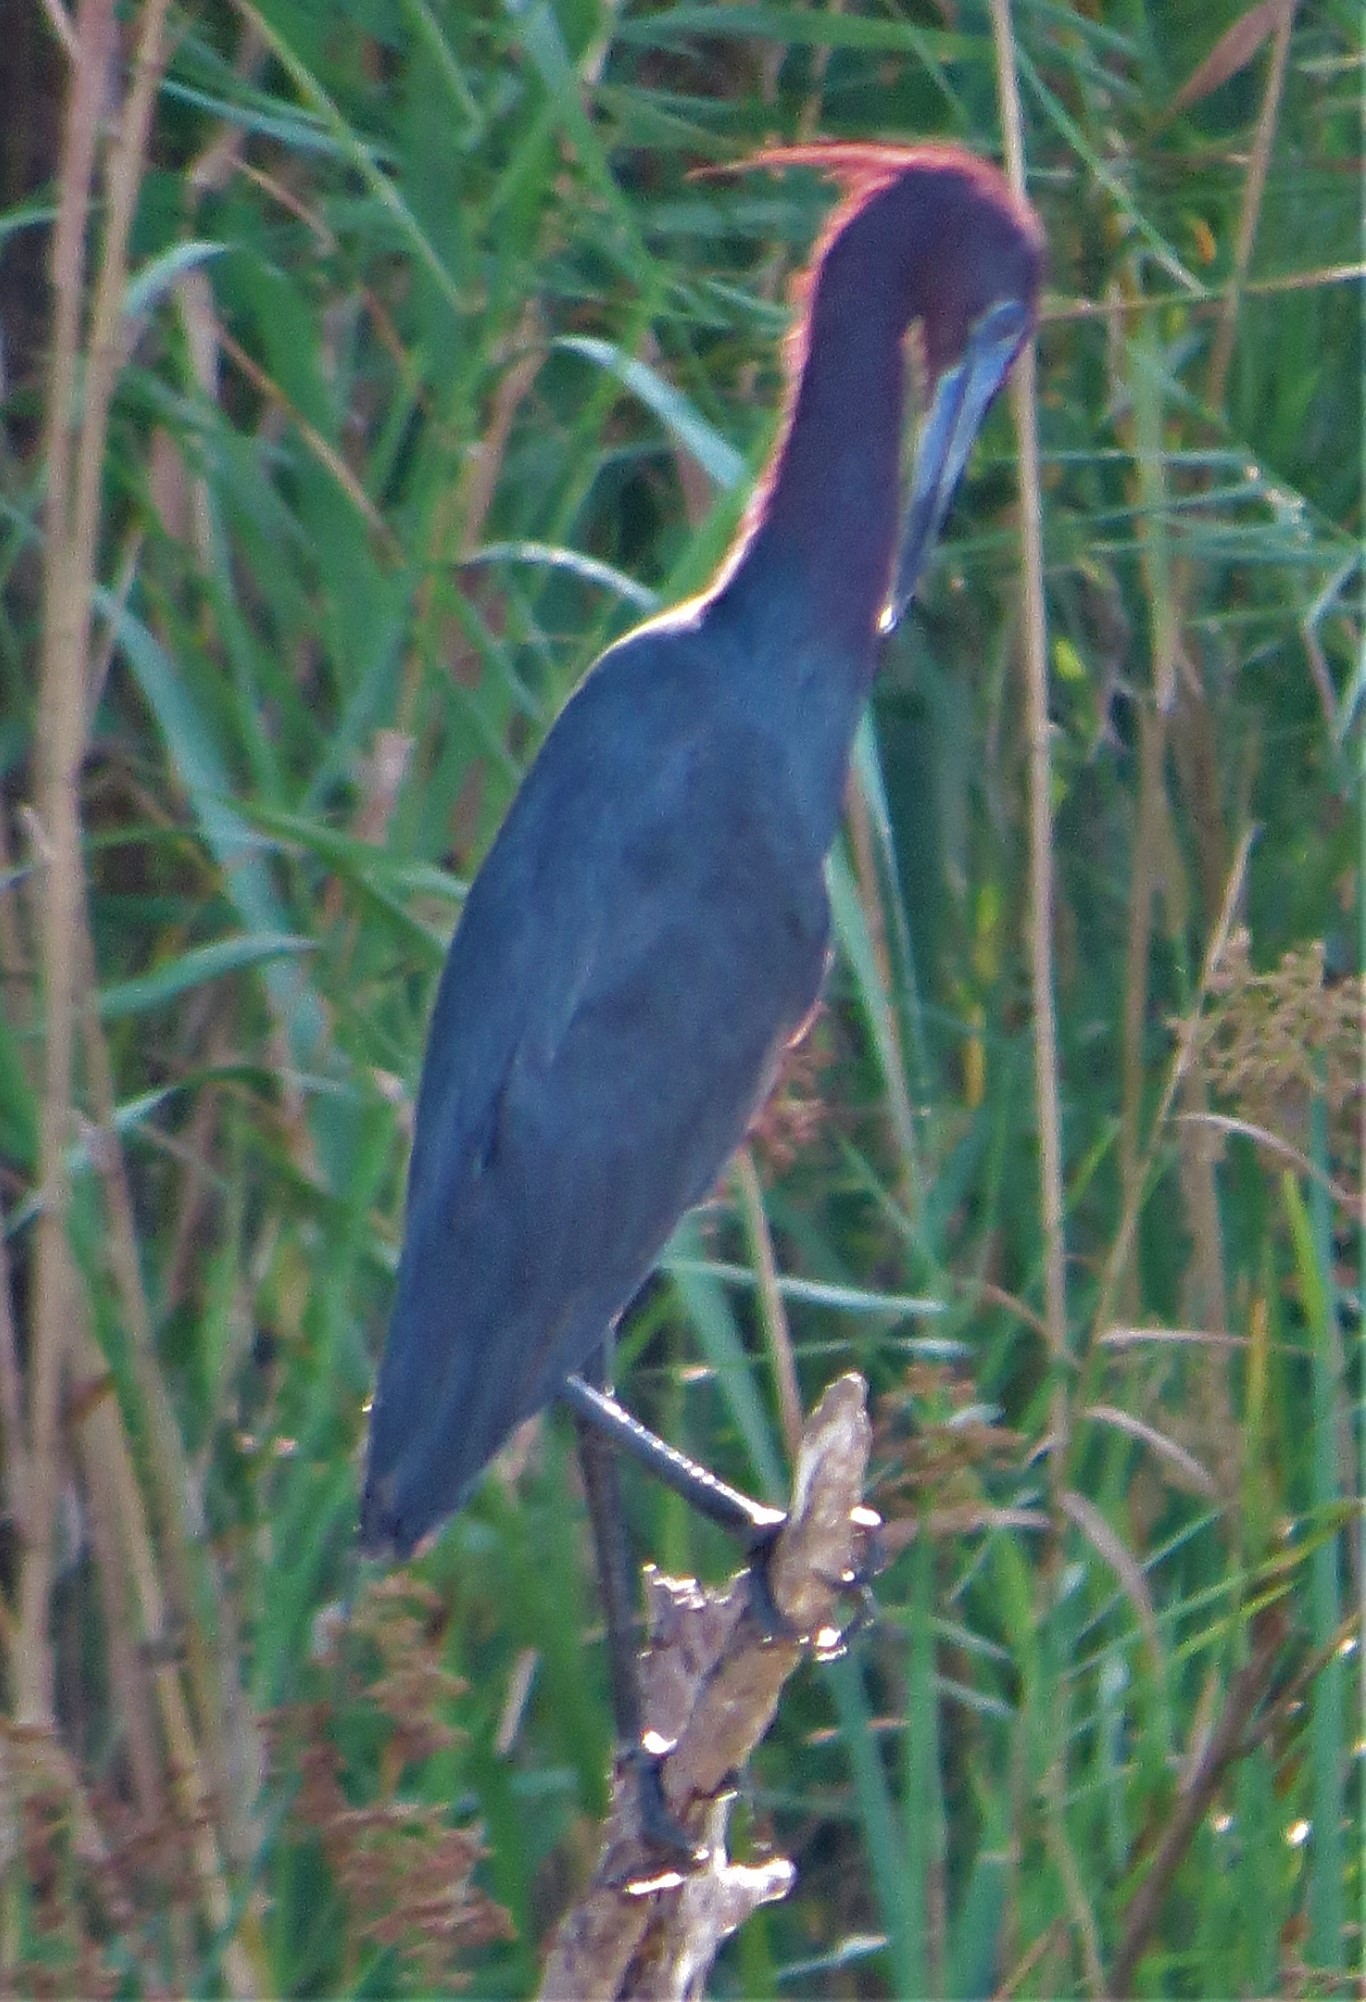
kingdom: Animalia
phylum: Chordata
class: Aves
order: Pelecaniformes
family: Ardeidae
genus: Egretta
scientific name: Egretta caerulea
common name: Little blue heron
